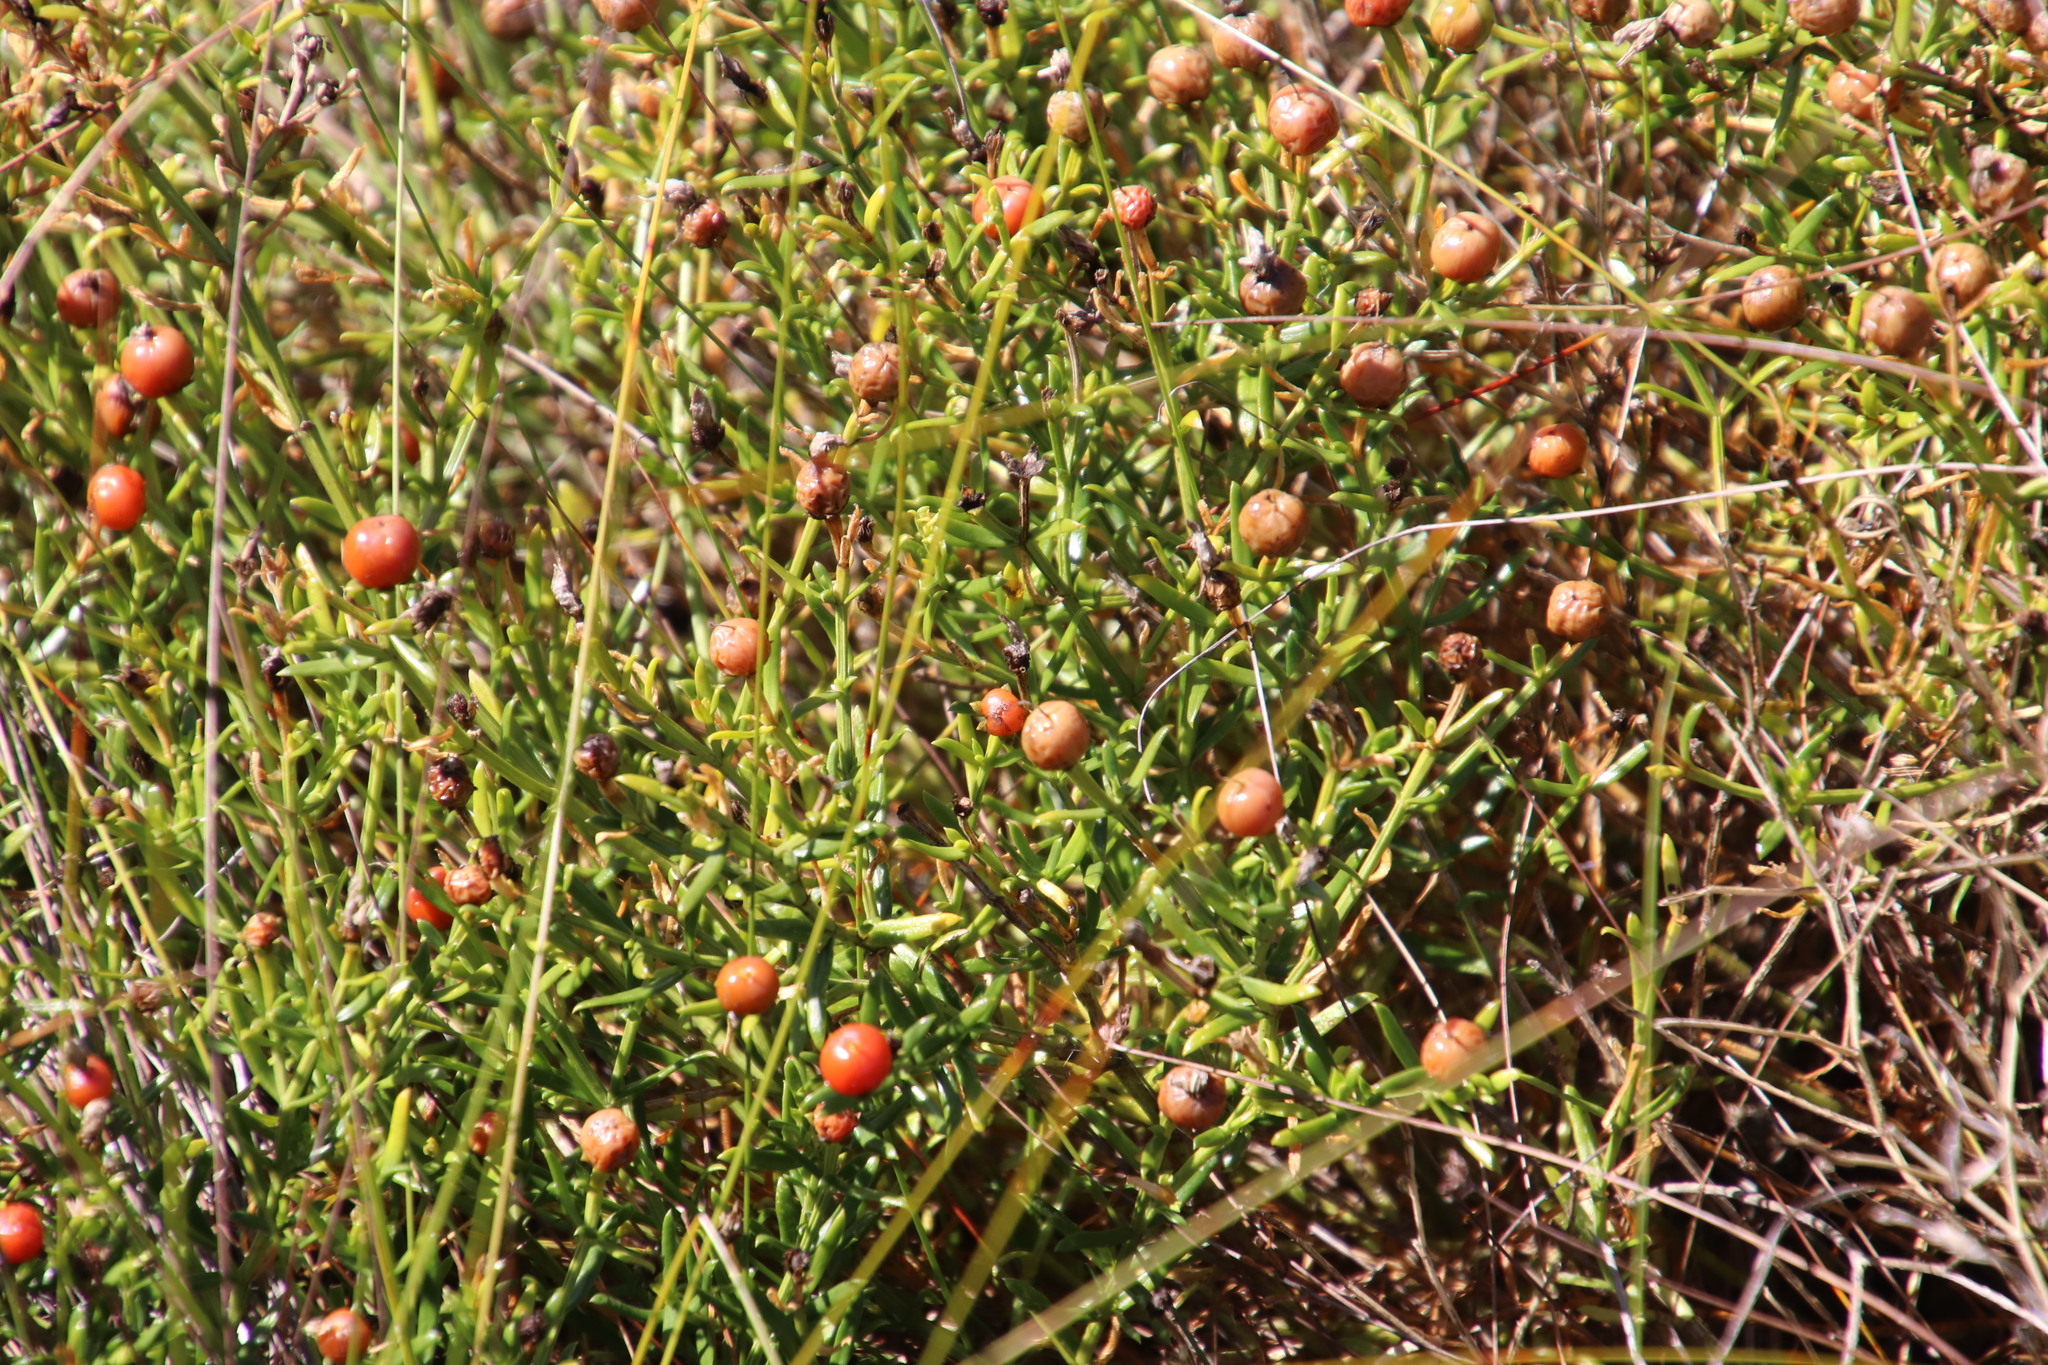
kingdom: Plantae
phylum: Tracheophyta
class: Magnoliopsida
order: Gentianales
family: Gentianaceae
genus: Chironia
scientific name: Chironia baccifera
